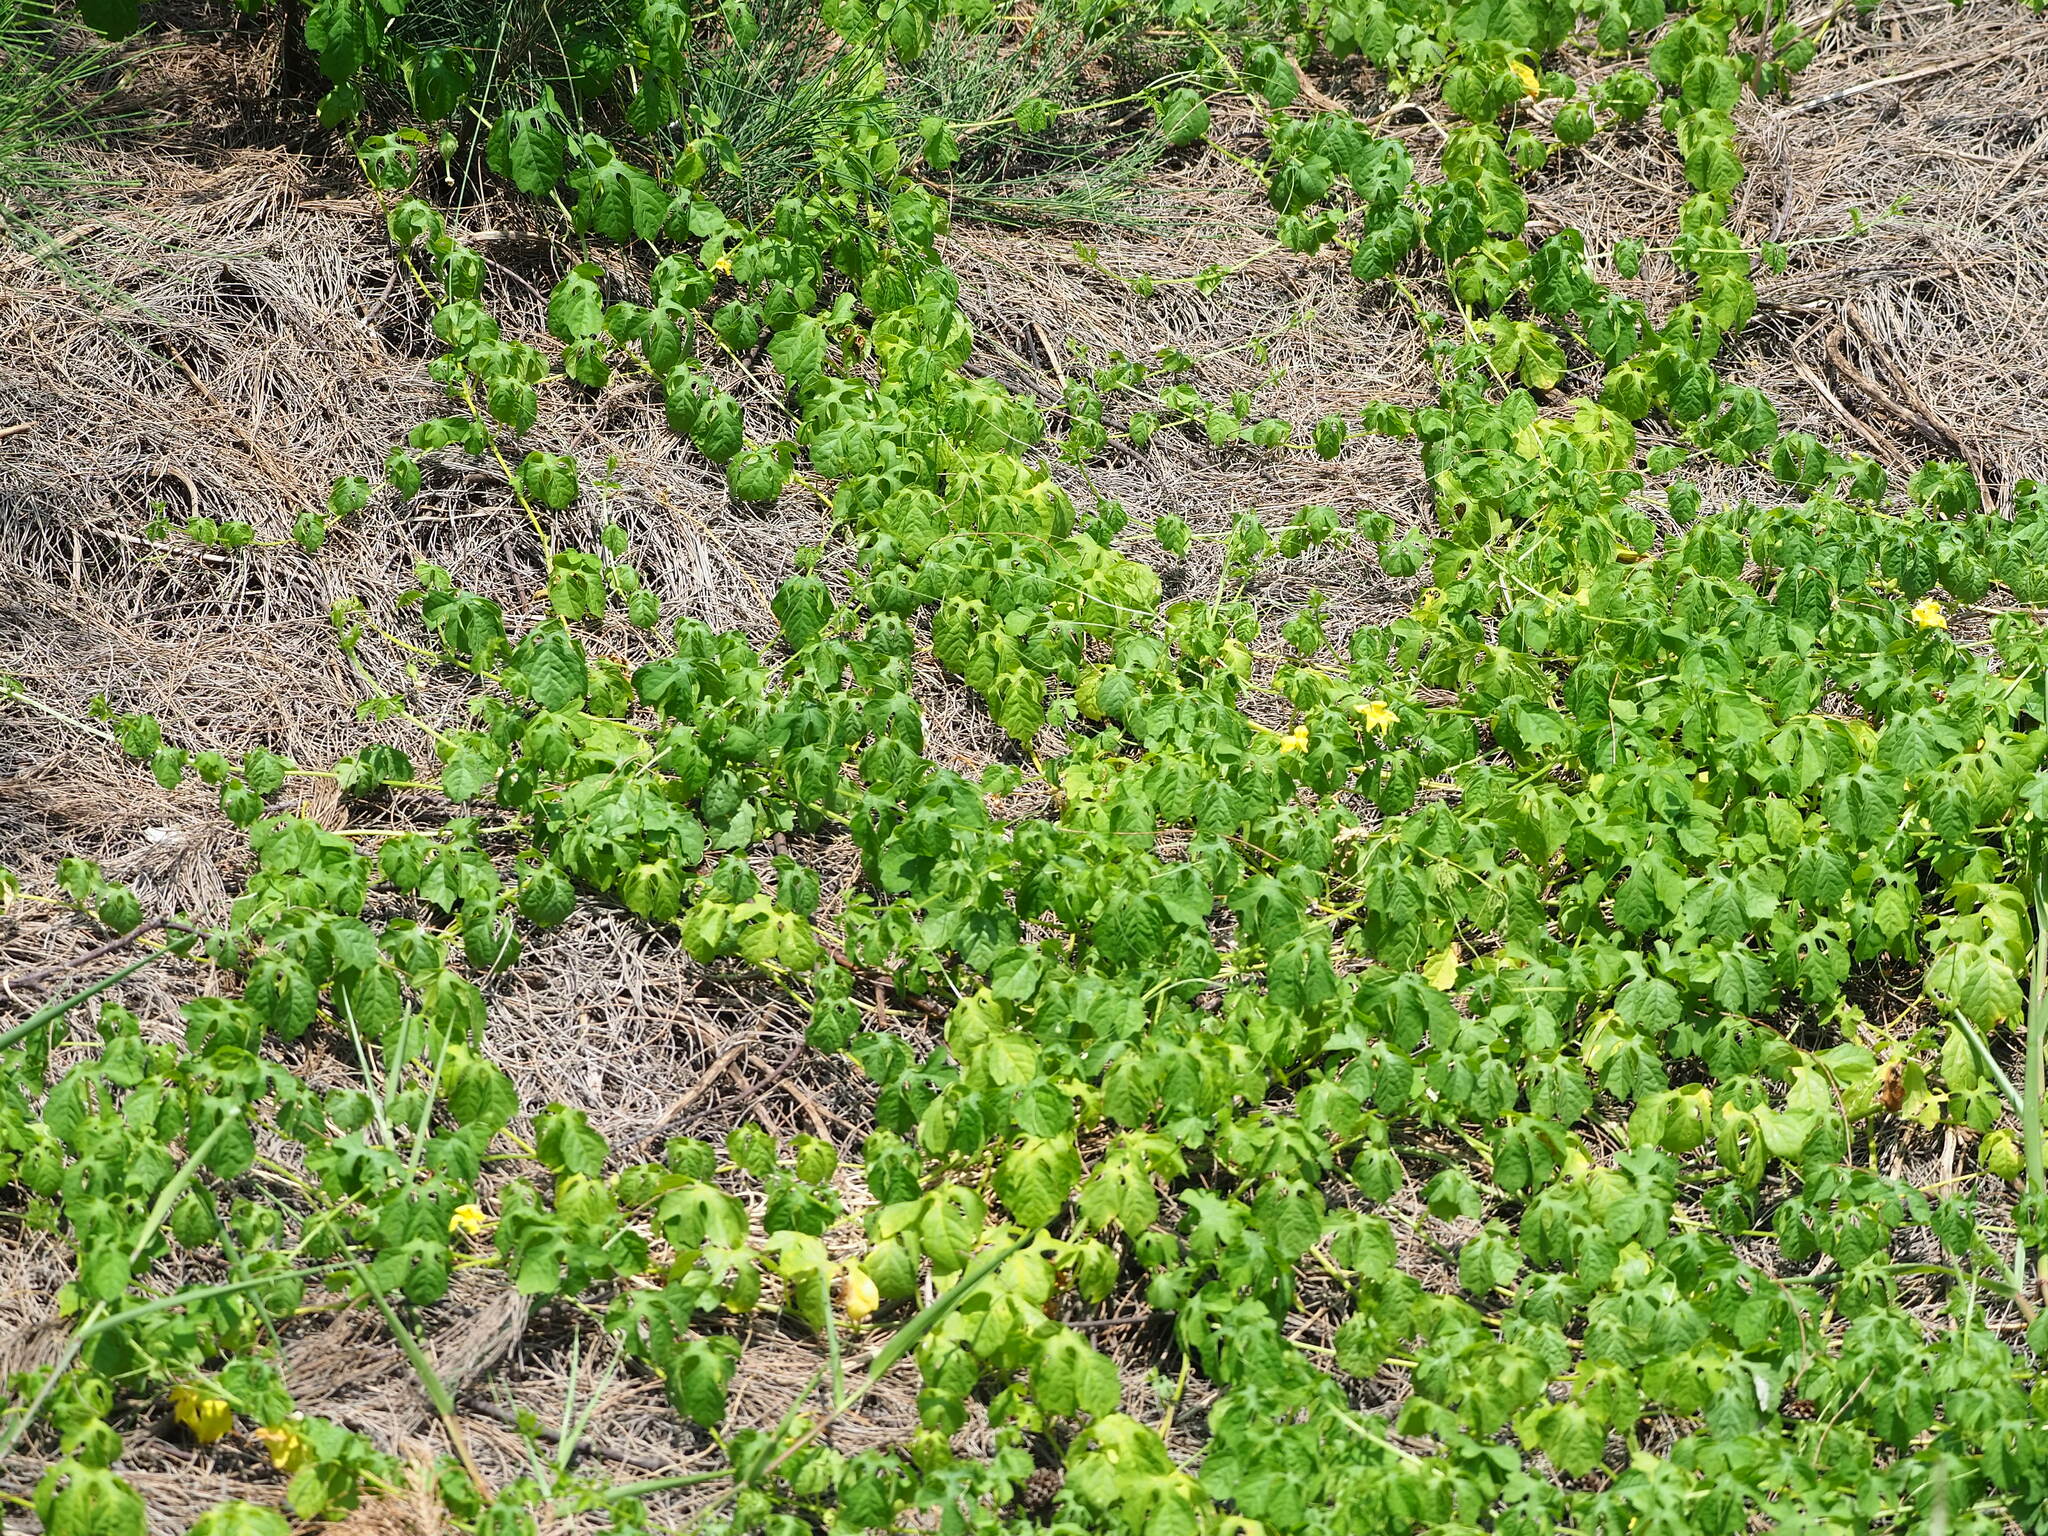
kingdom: Plantae
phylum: Tracheophyta
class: Magnoliopsida
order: Cucurbitales
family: Cucurbitaceae
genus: Momordica
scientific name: Momordica charantia
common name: Balsampear
